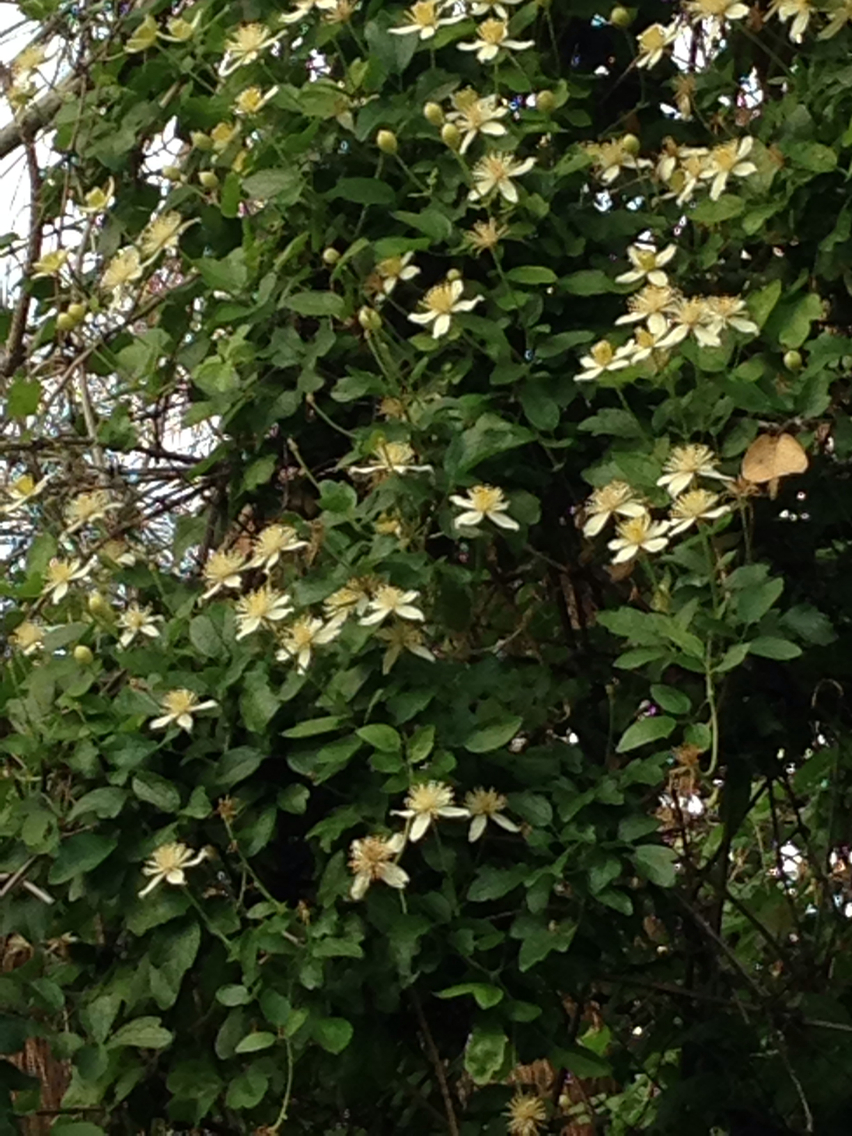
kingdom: Plantae
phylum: Tracheophyta
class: Magnoliopsida
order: Ranunculales
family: Ranunculaceae
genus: Clematis
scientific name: Clematis lasiantha
